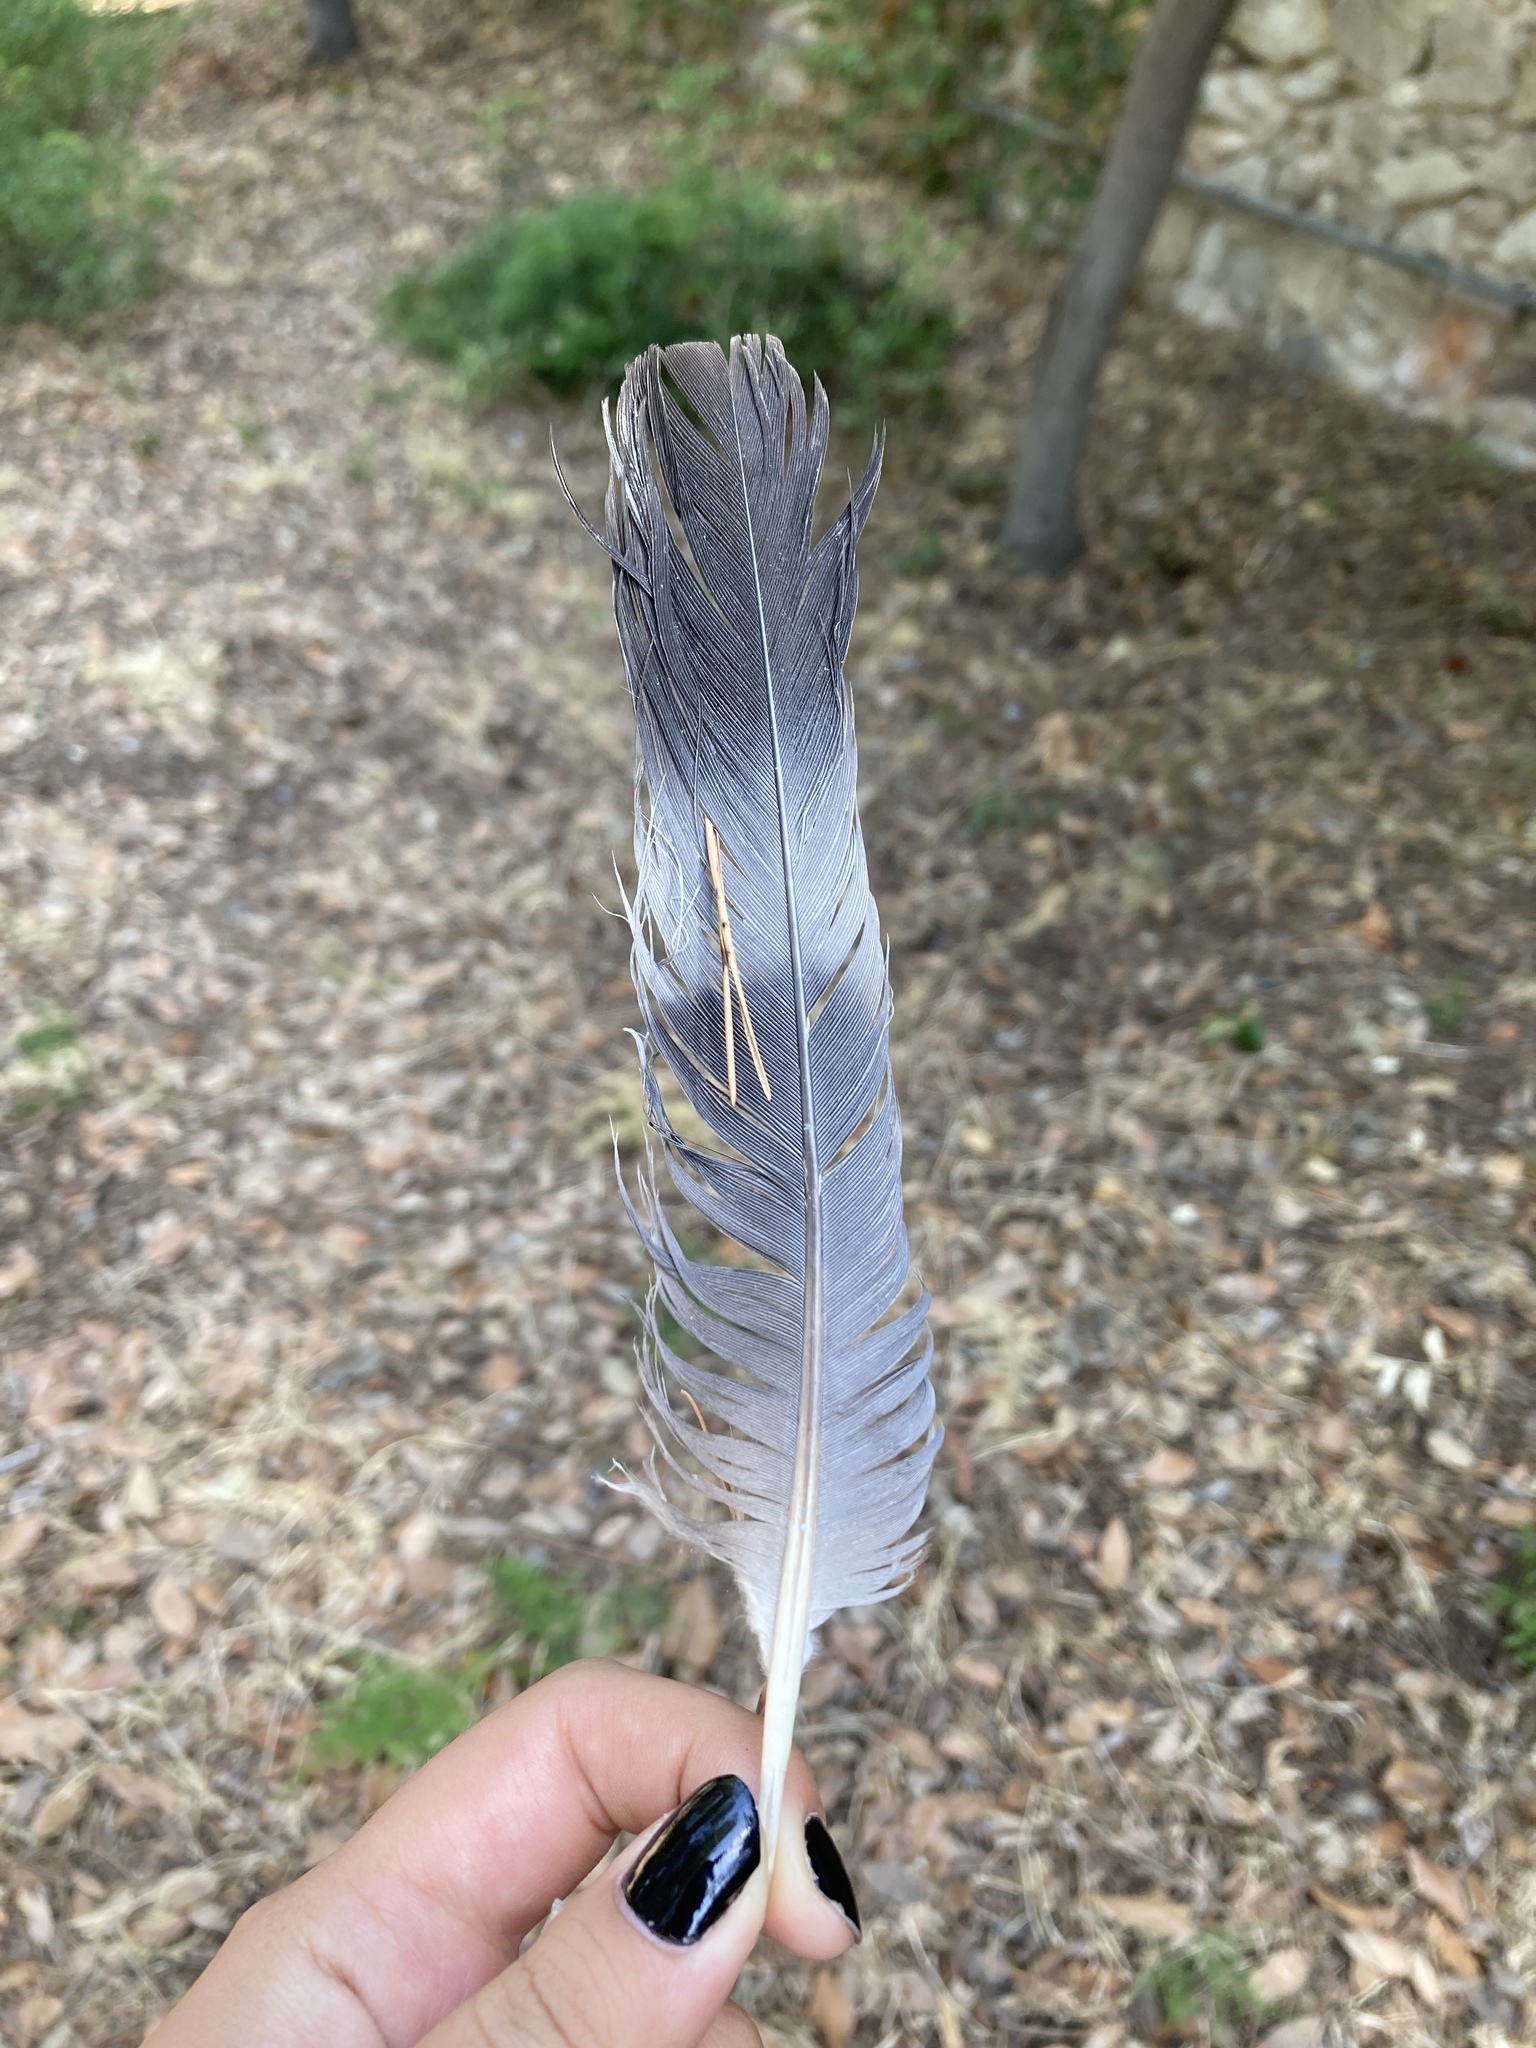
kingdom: Animalia
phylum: Chordata
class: Aves
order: Columbiformes
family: Columbidae
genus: Columba
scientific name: Columba palumbus
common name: Common wood pigeon
